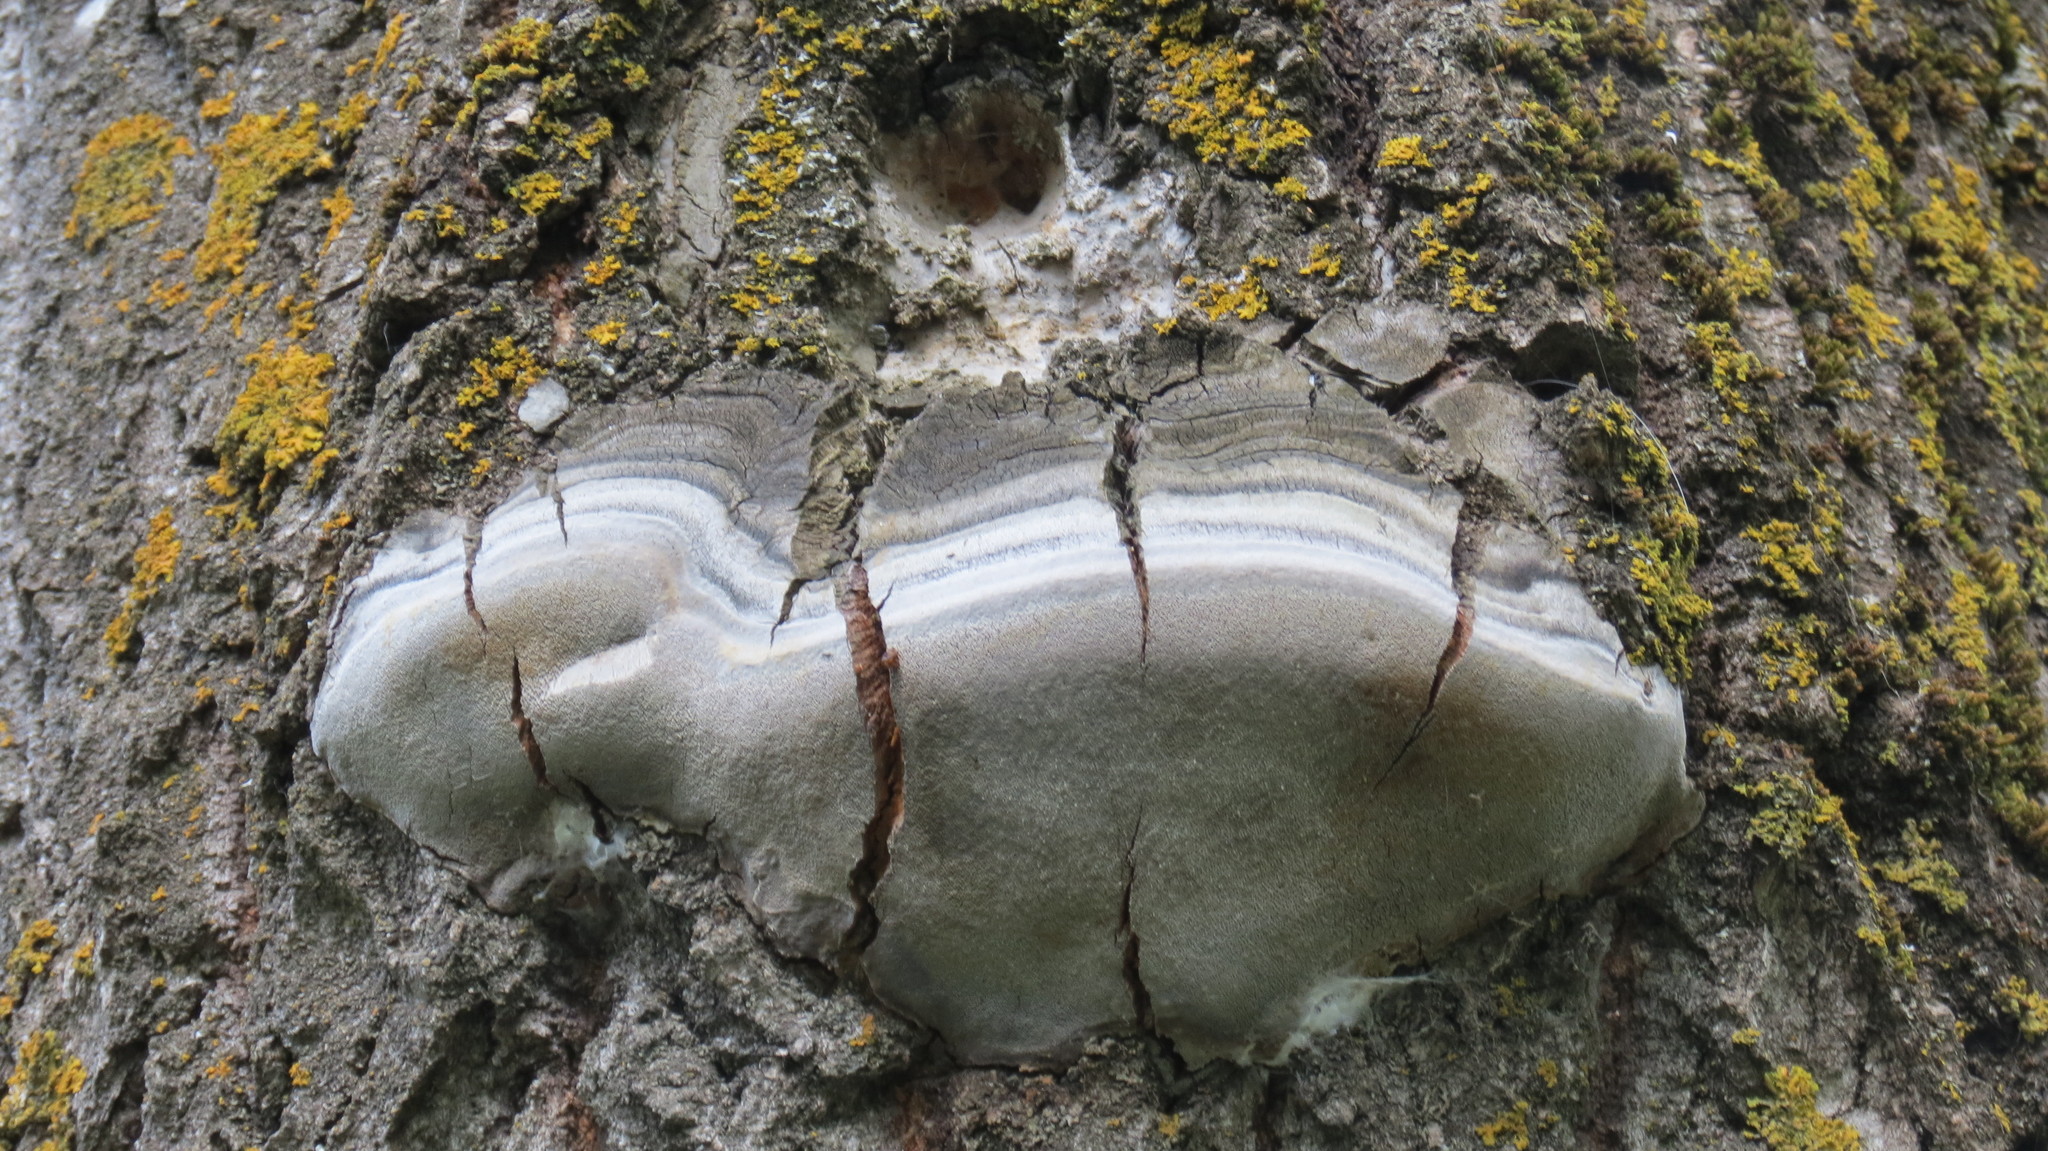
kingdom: Fungi
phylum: Basidiomycota
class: Agaricomycetes
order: Hymenochaetales
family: Hymenochaetaceae
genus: Phellinus
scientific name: Phellinus tremulae
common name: Aspen bracket
